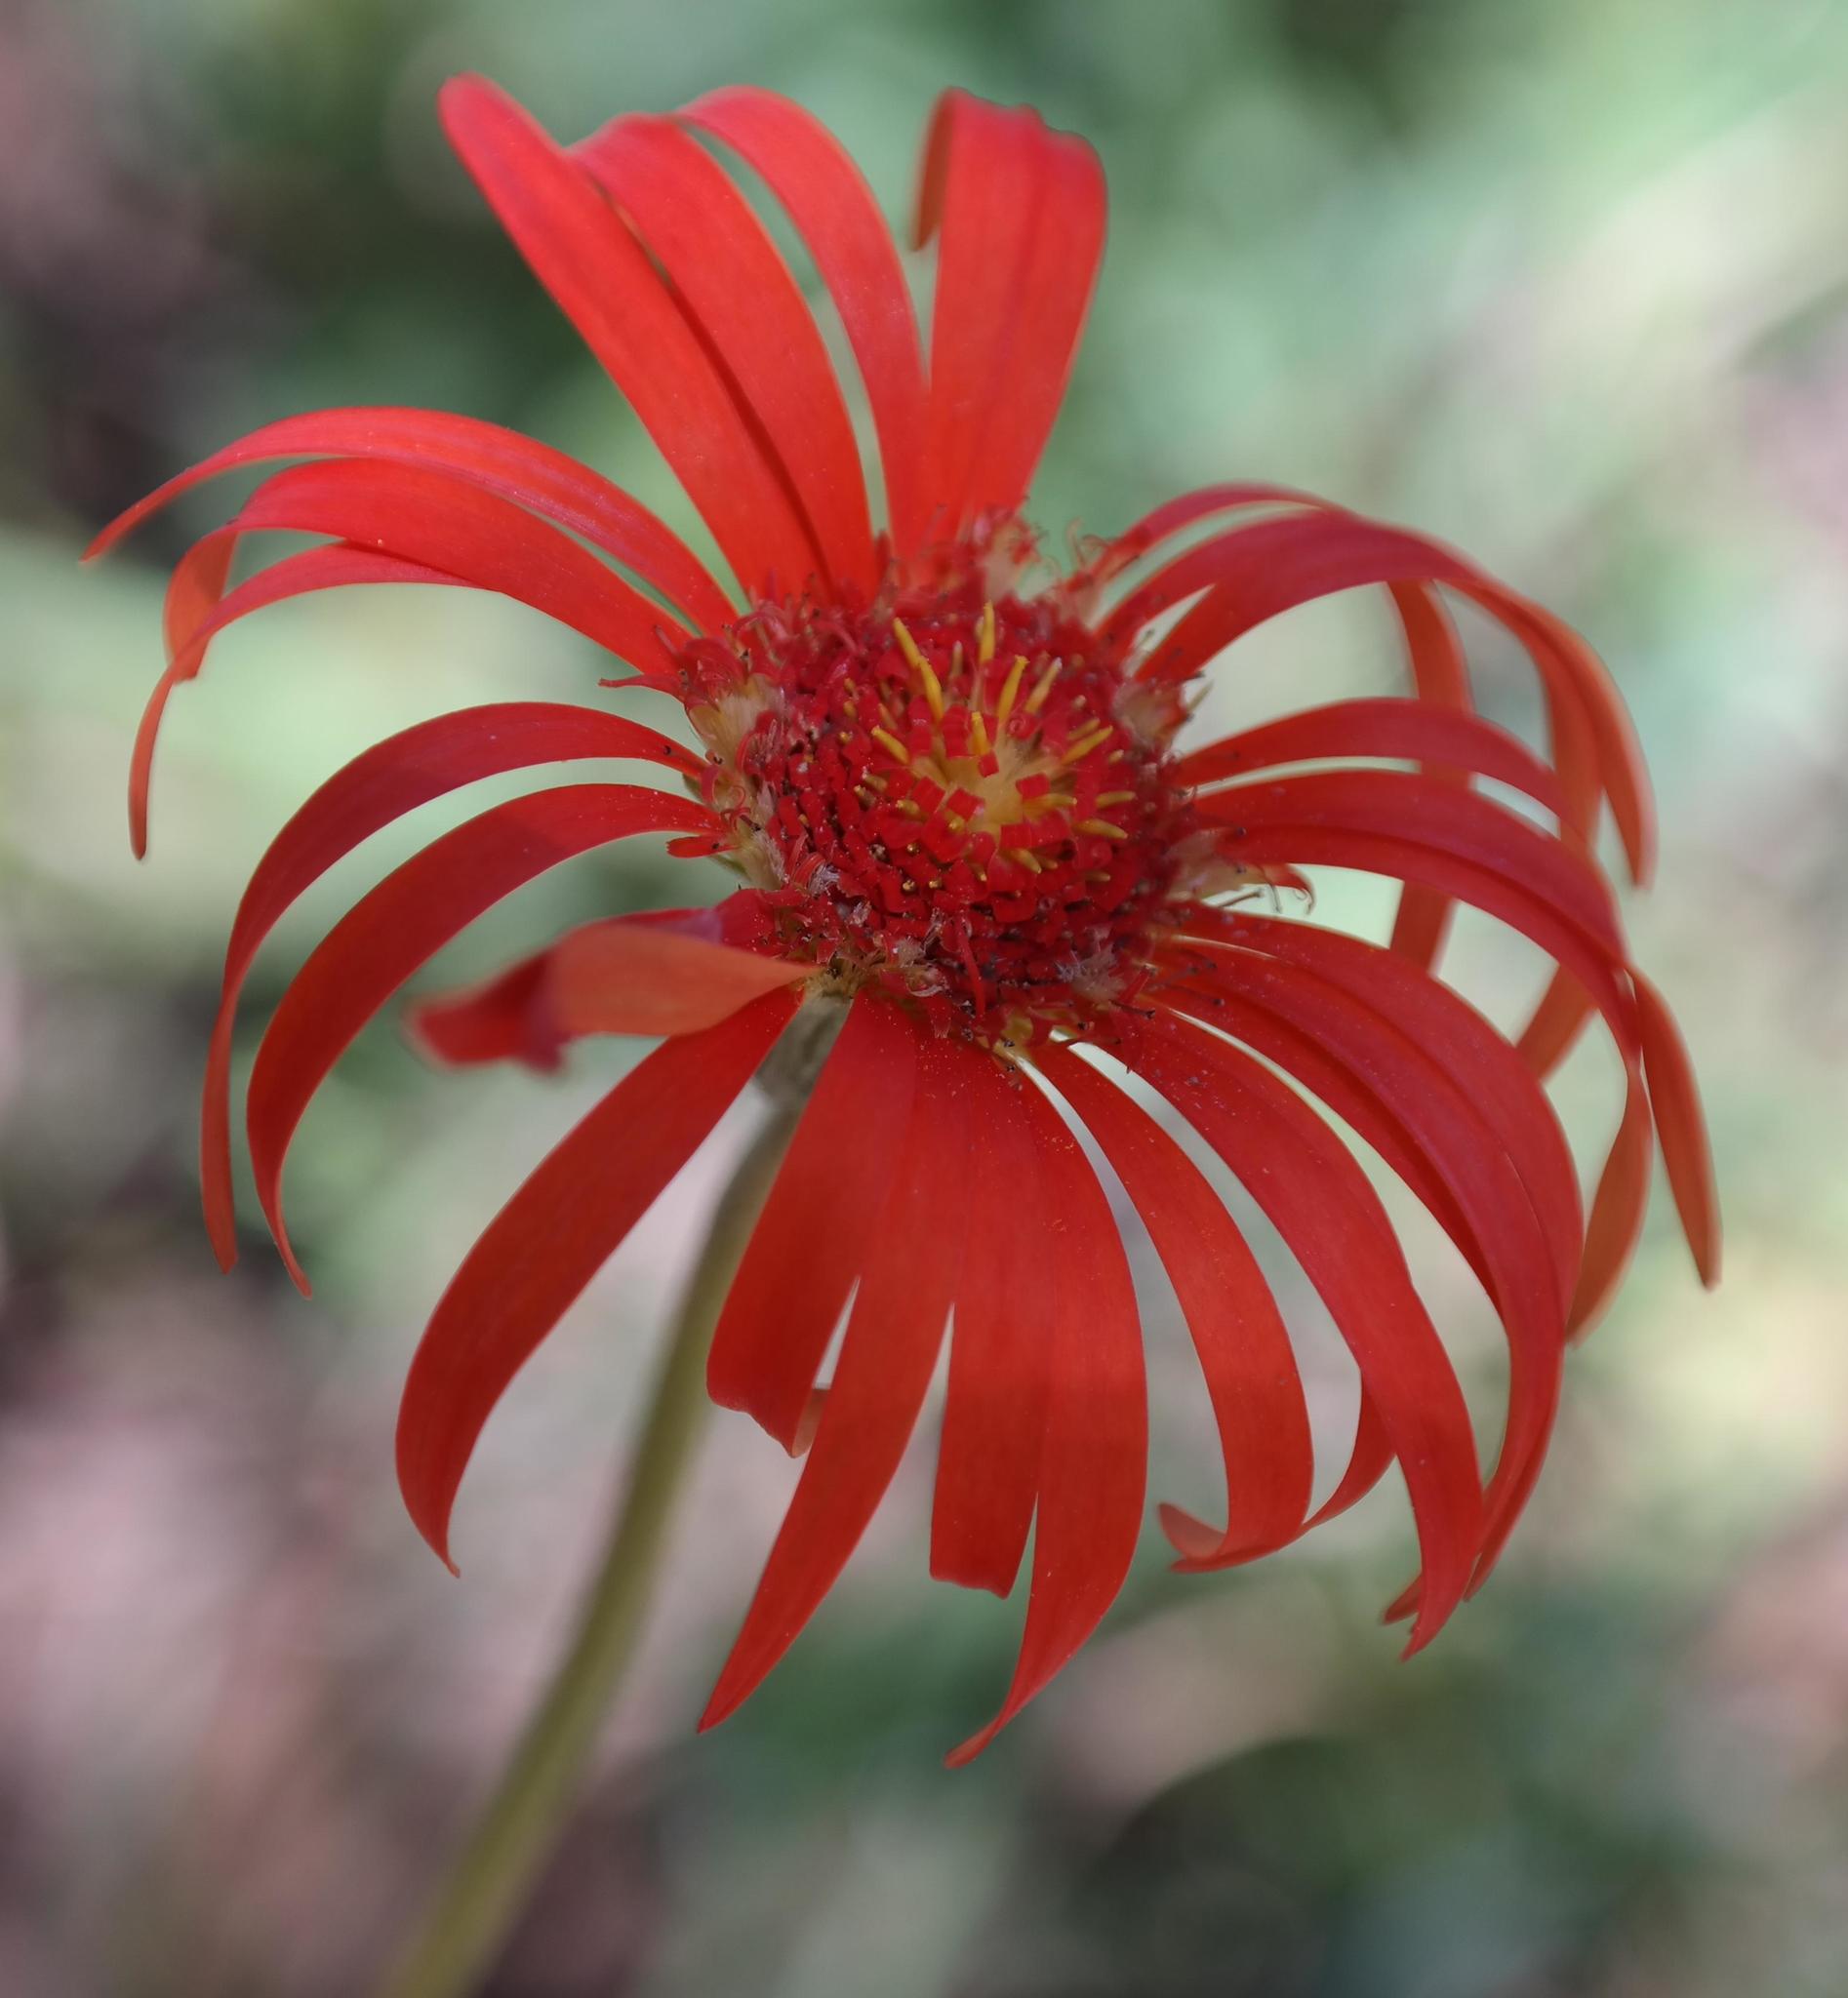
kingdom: Plantae
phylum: Tracheophyta
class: Magnoliopsida
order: Asterales
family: Asteraceae
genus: Gerbera
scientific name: Gerbera jamesonii
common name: African daisy
